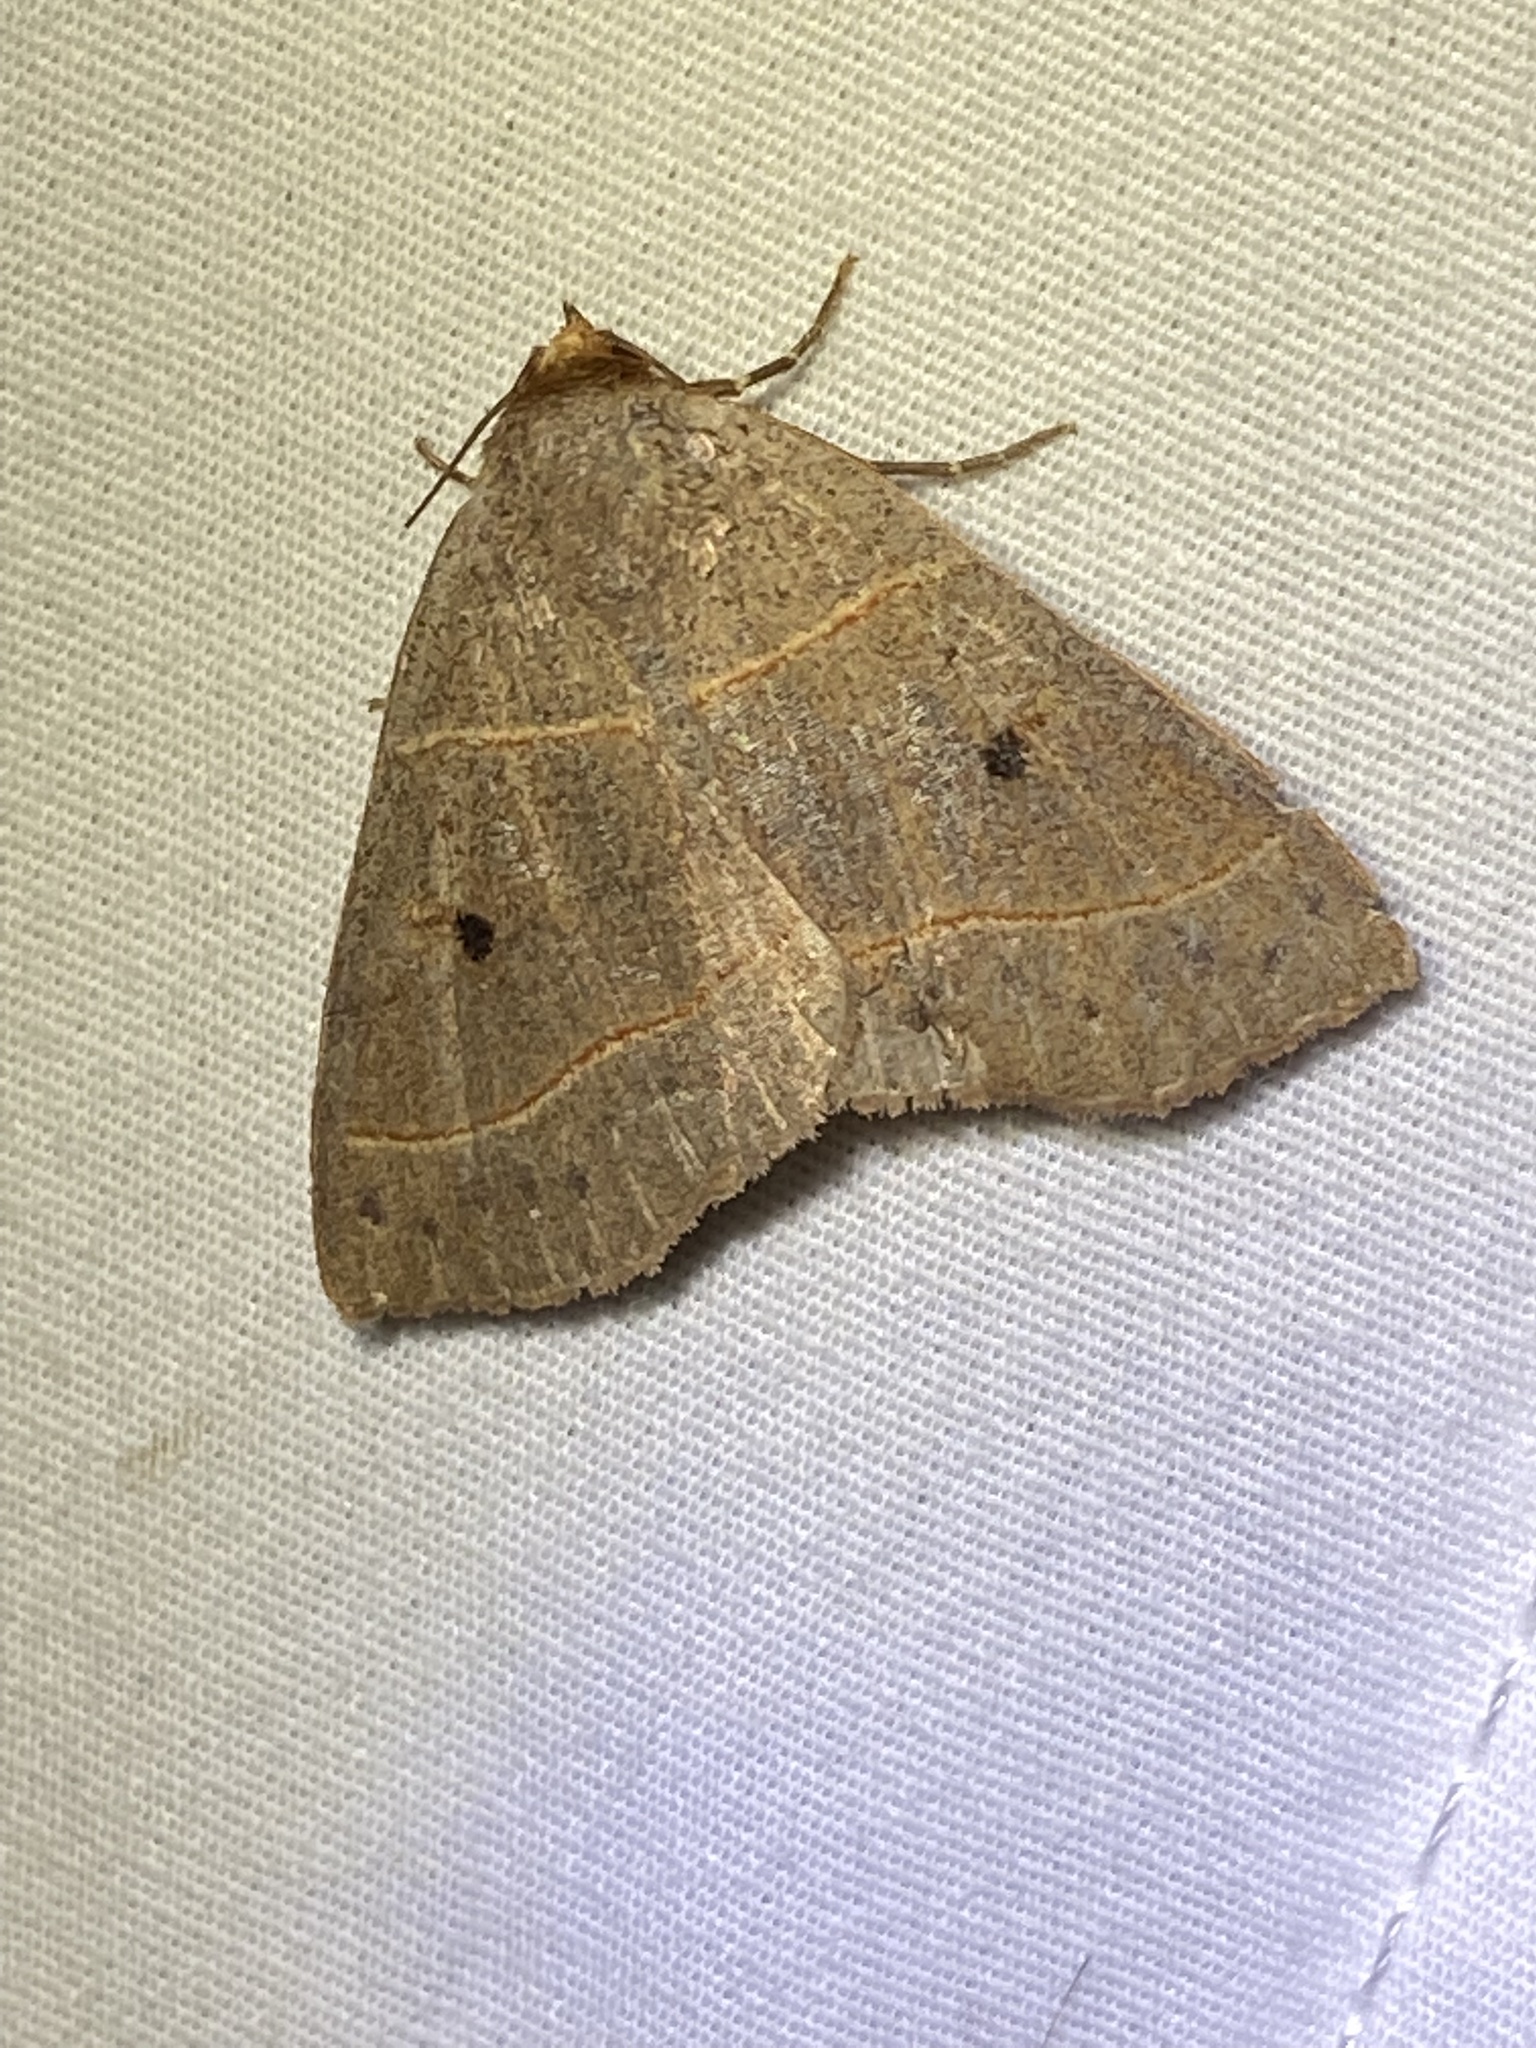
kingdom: Animalia
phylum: Arthropoda
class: Insecta
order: Lepidoptera
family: Erebidae
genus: Panopoda
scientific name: Panopoda rufimargo
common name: Red-lined panopoda moth
